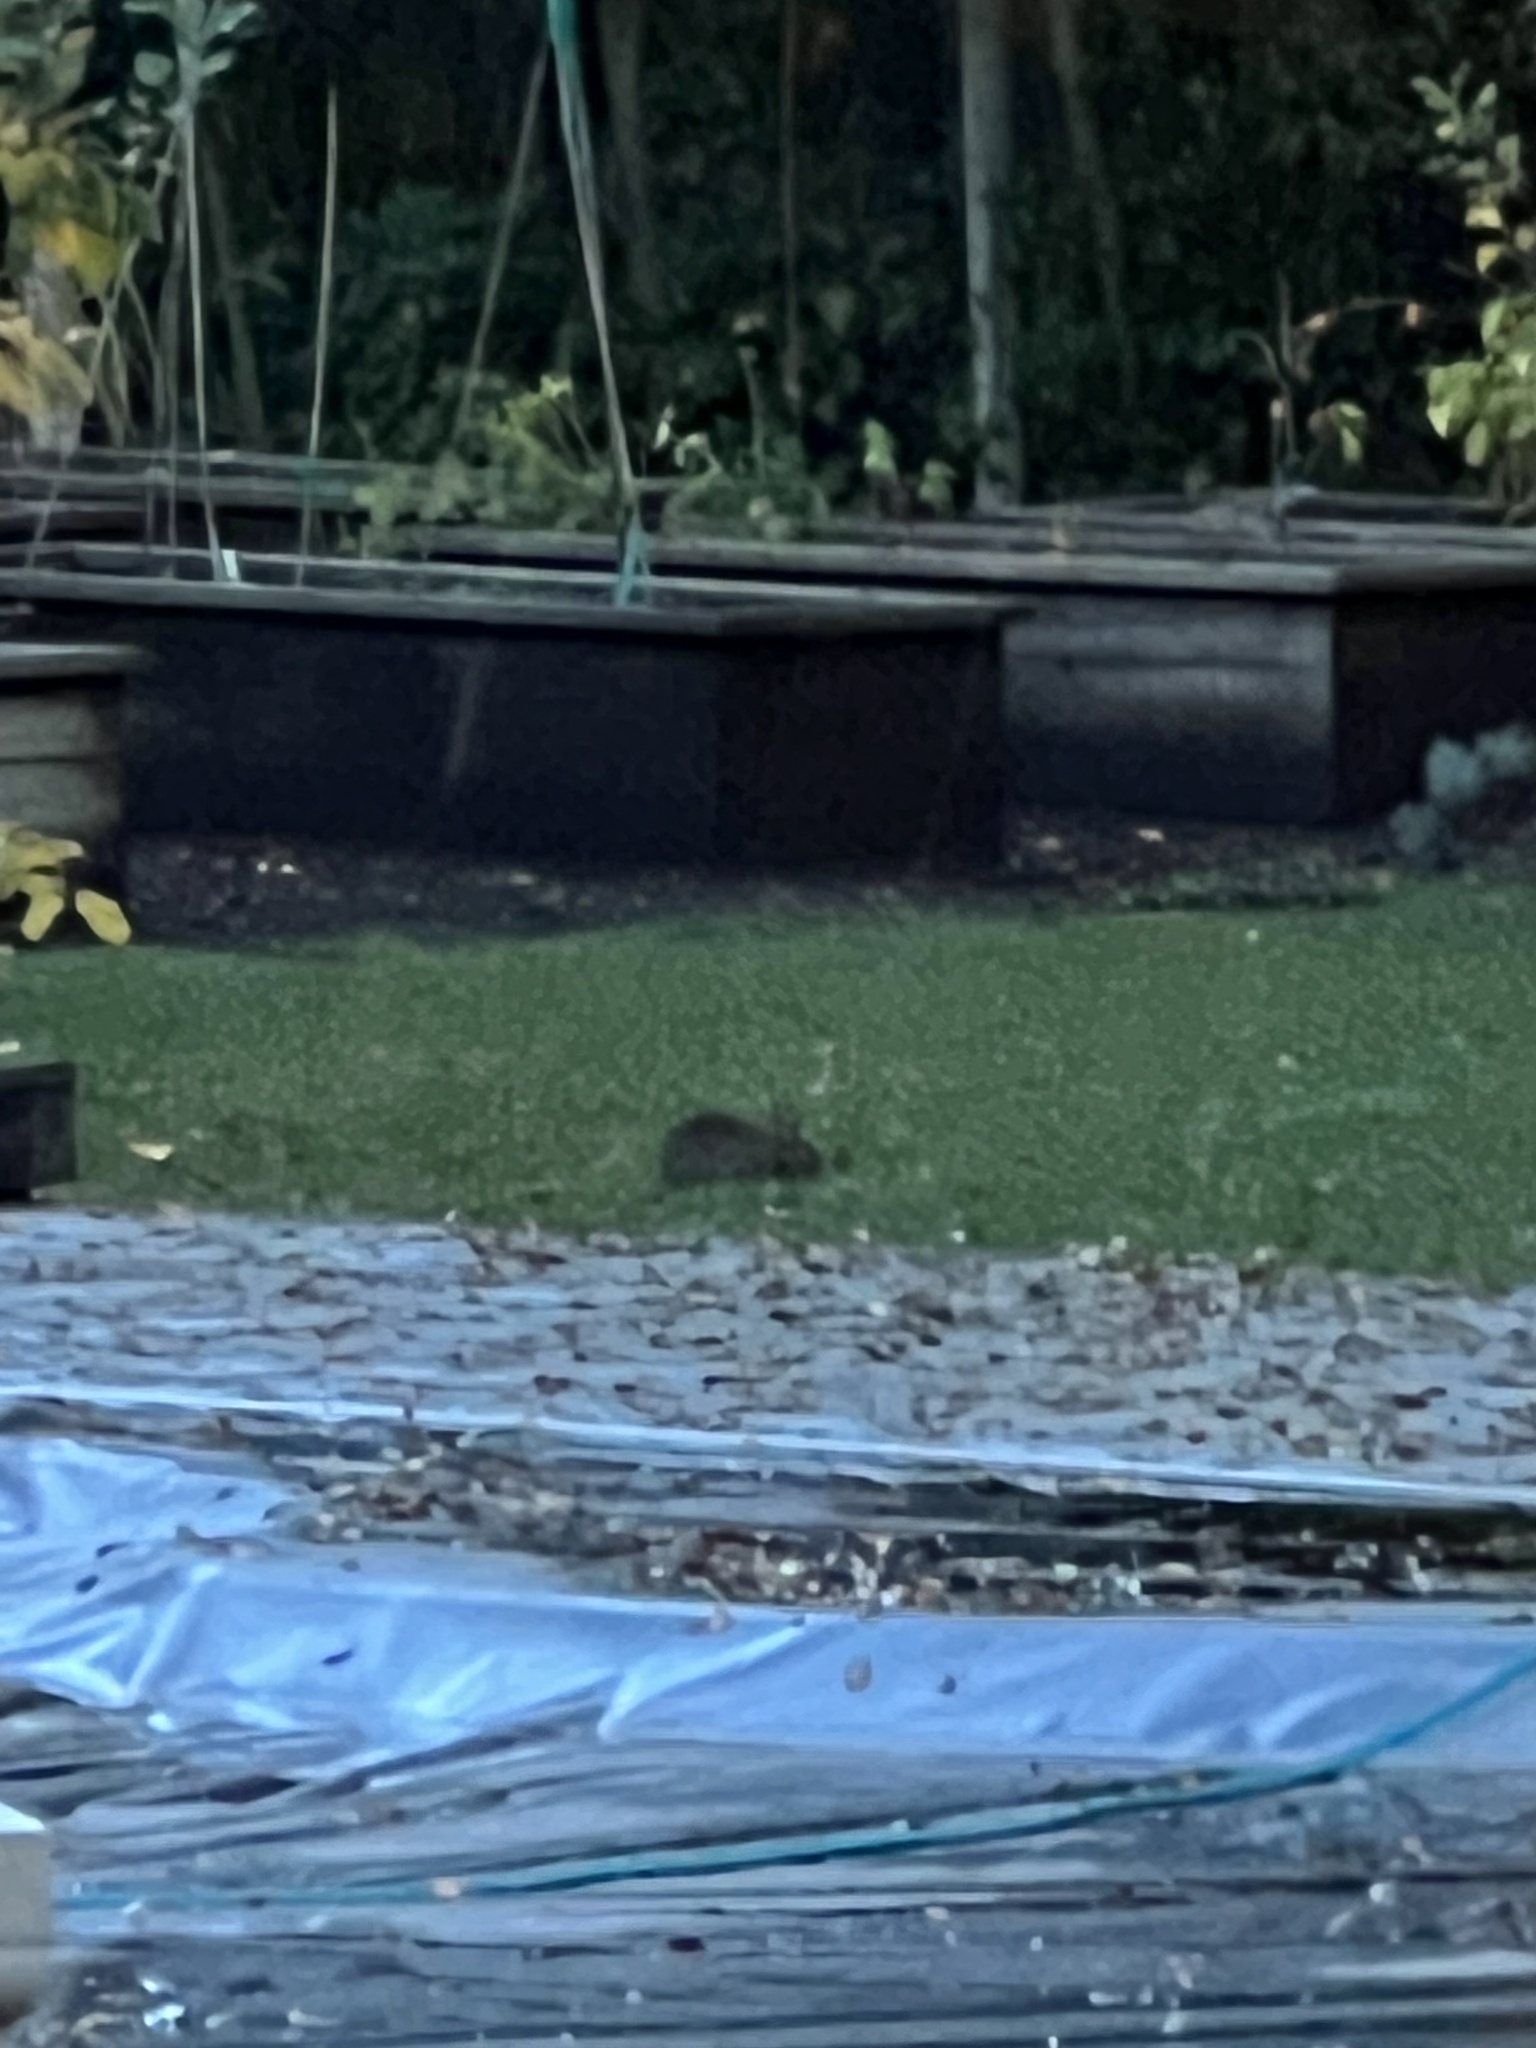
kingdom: Animalia
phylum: Chordata
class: Mammalia
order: Lagomorpha
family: Leporidae
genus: Sylvilagus
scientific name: Sylvilagus bachmani
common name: Brush rabbit
